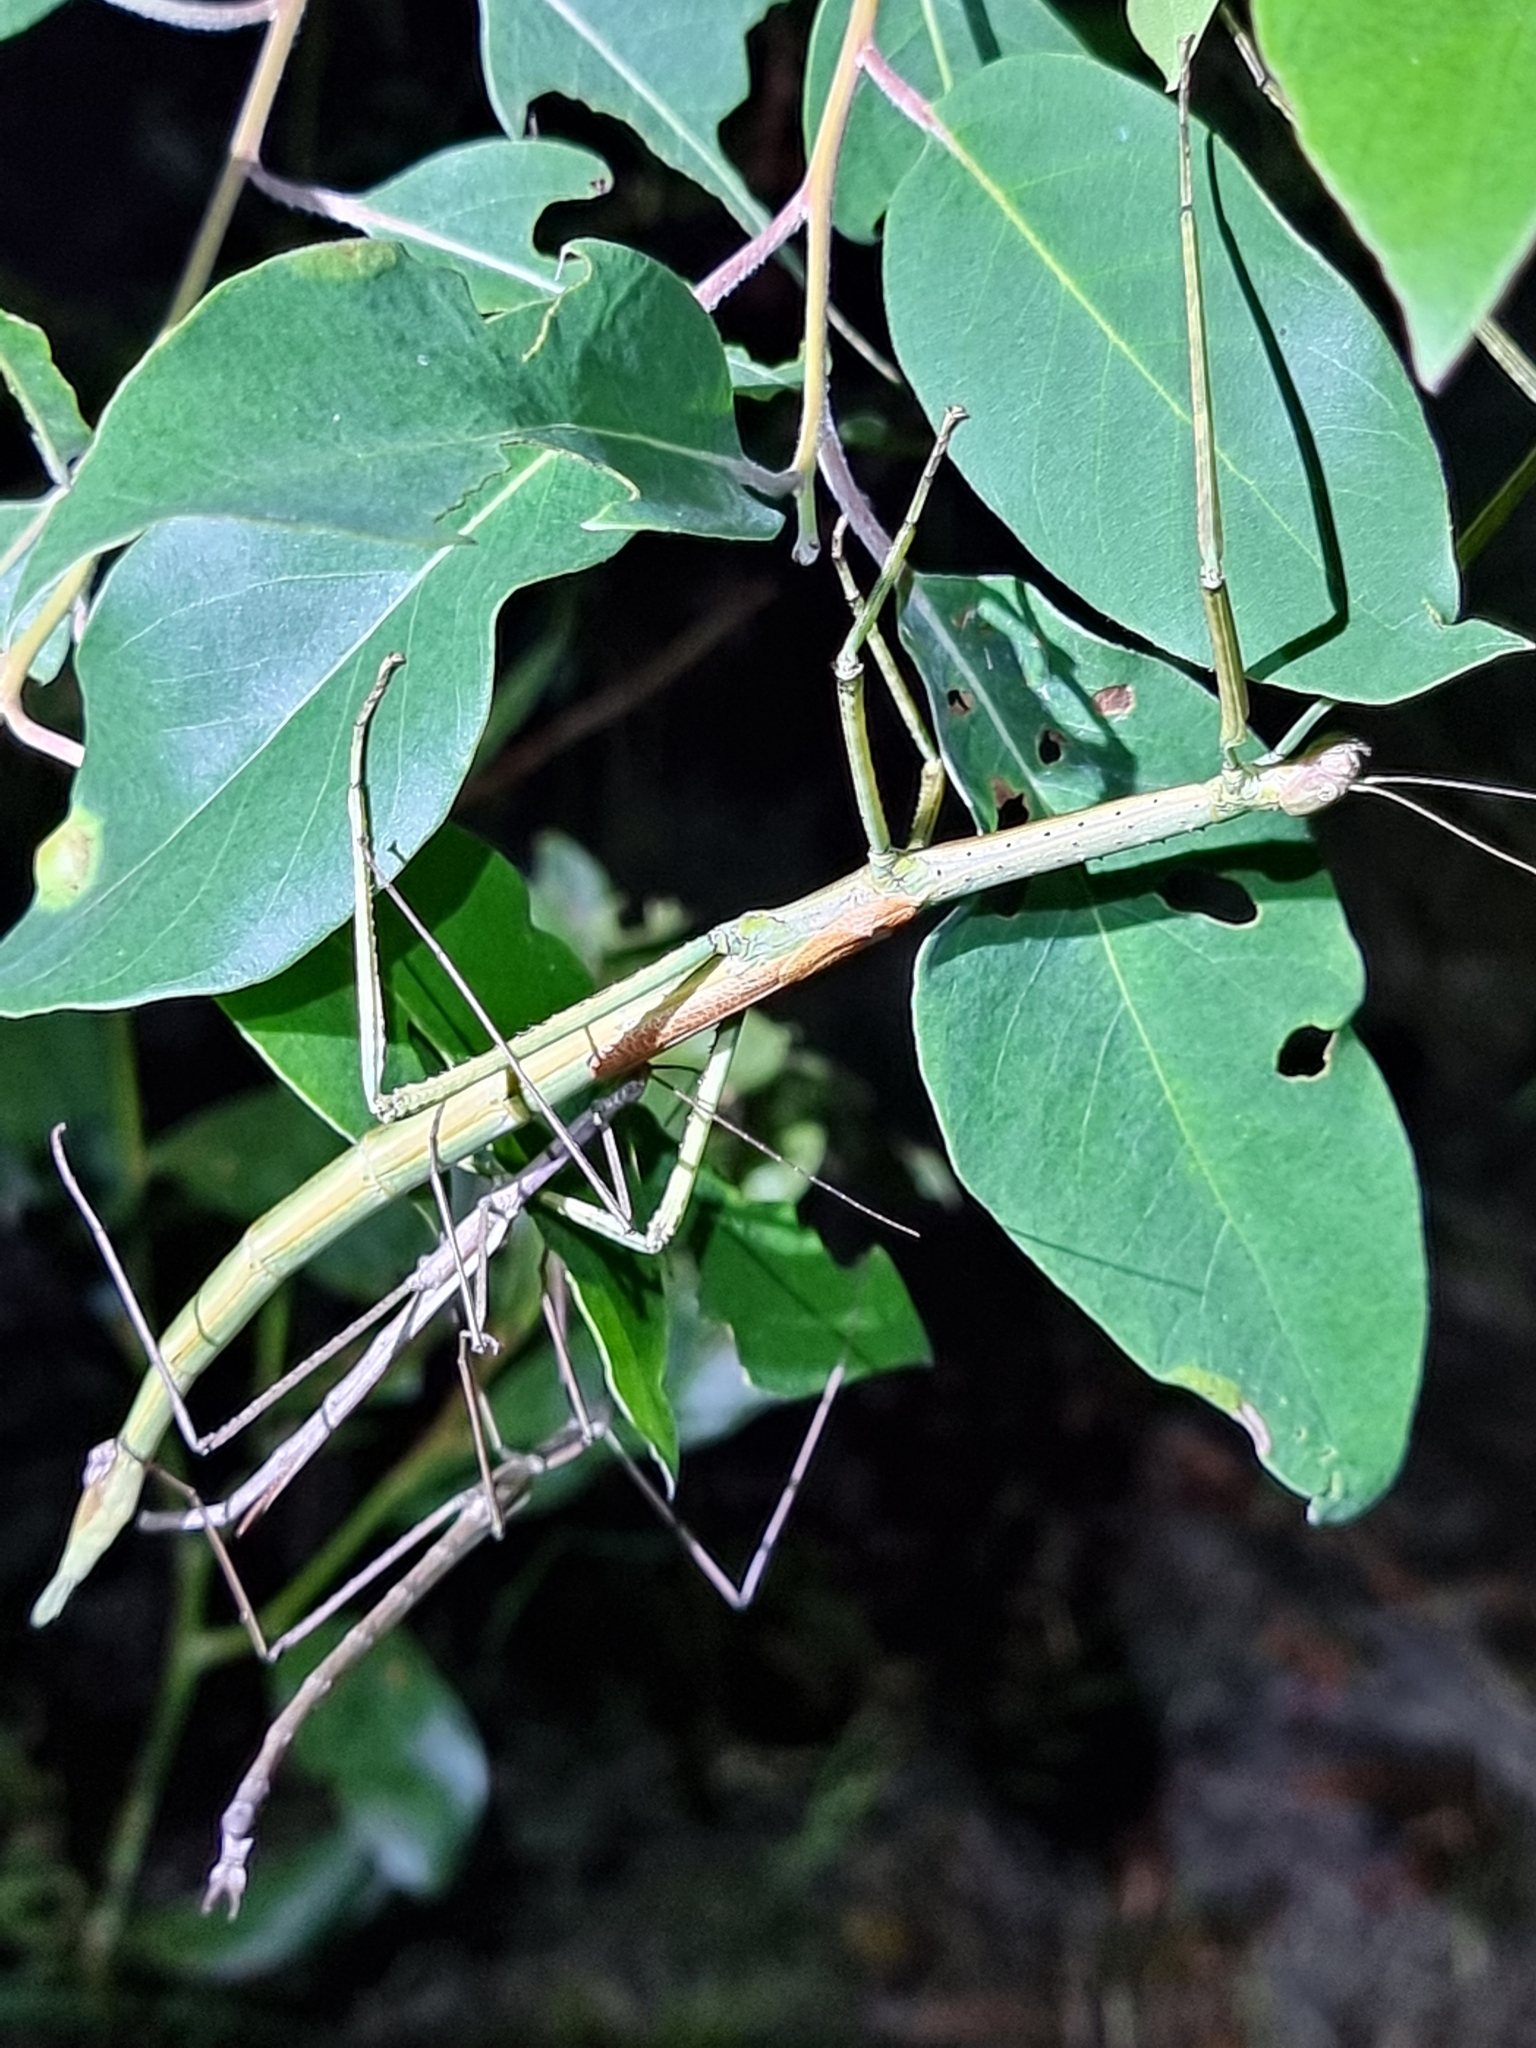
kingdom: Animalia
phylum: Arthropoda
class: Insecta
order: Phasmida
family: Phasmatidae
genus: Anchiale
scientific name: Anchiale austrotessulata
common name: Tessellated stick-insect
